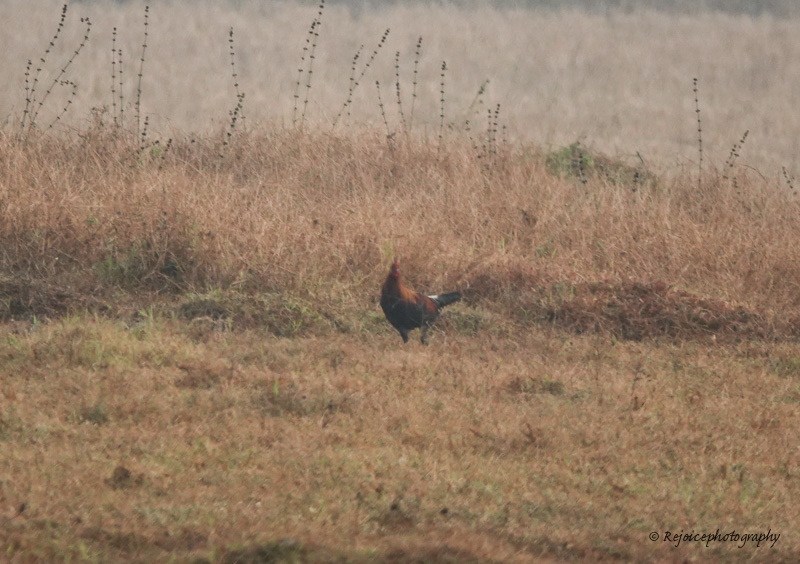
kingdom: Animalia
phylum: Chordata
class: Aves
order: Galliformes
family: Phasianidae
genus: Gallus
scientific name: Gallus gallus
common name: Red junglefowl
